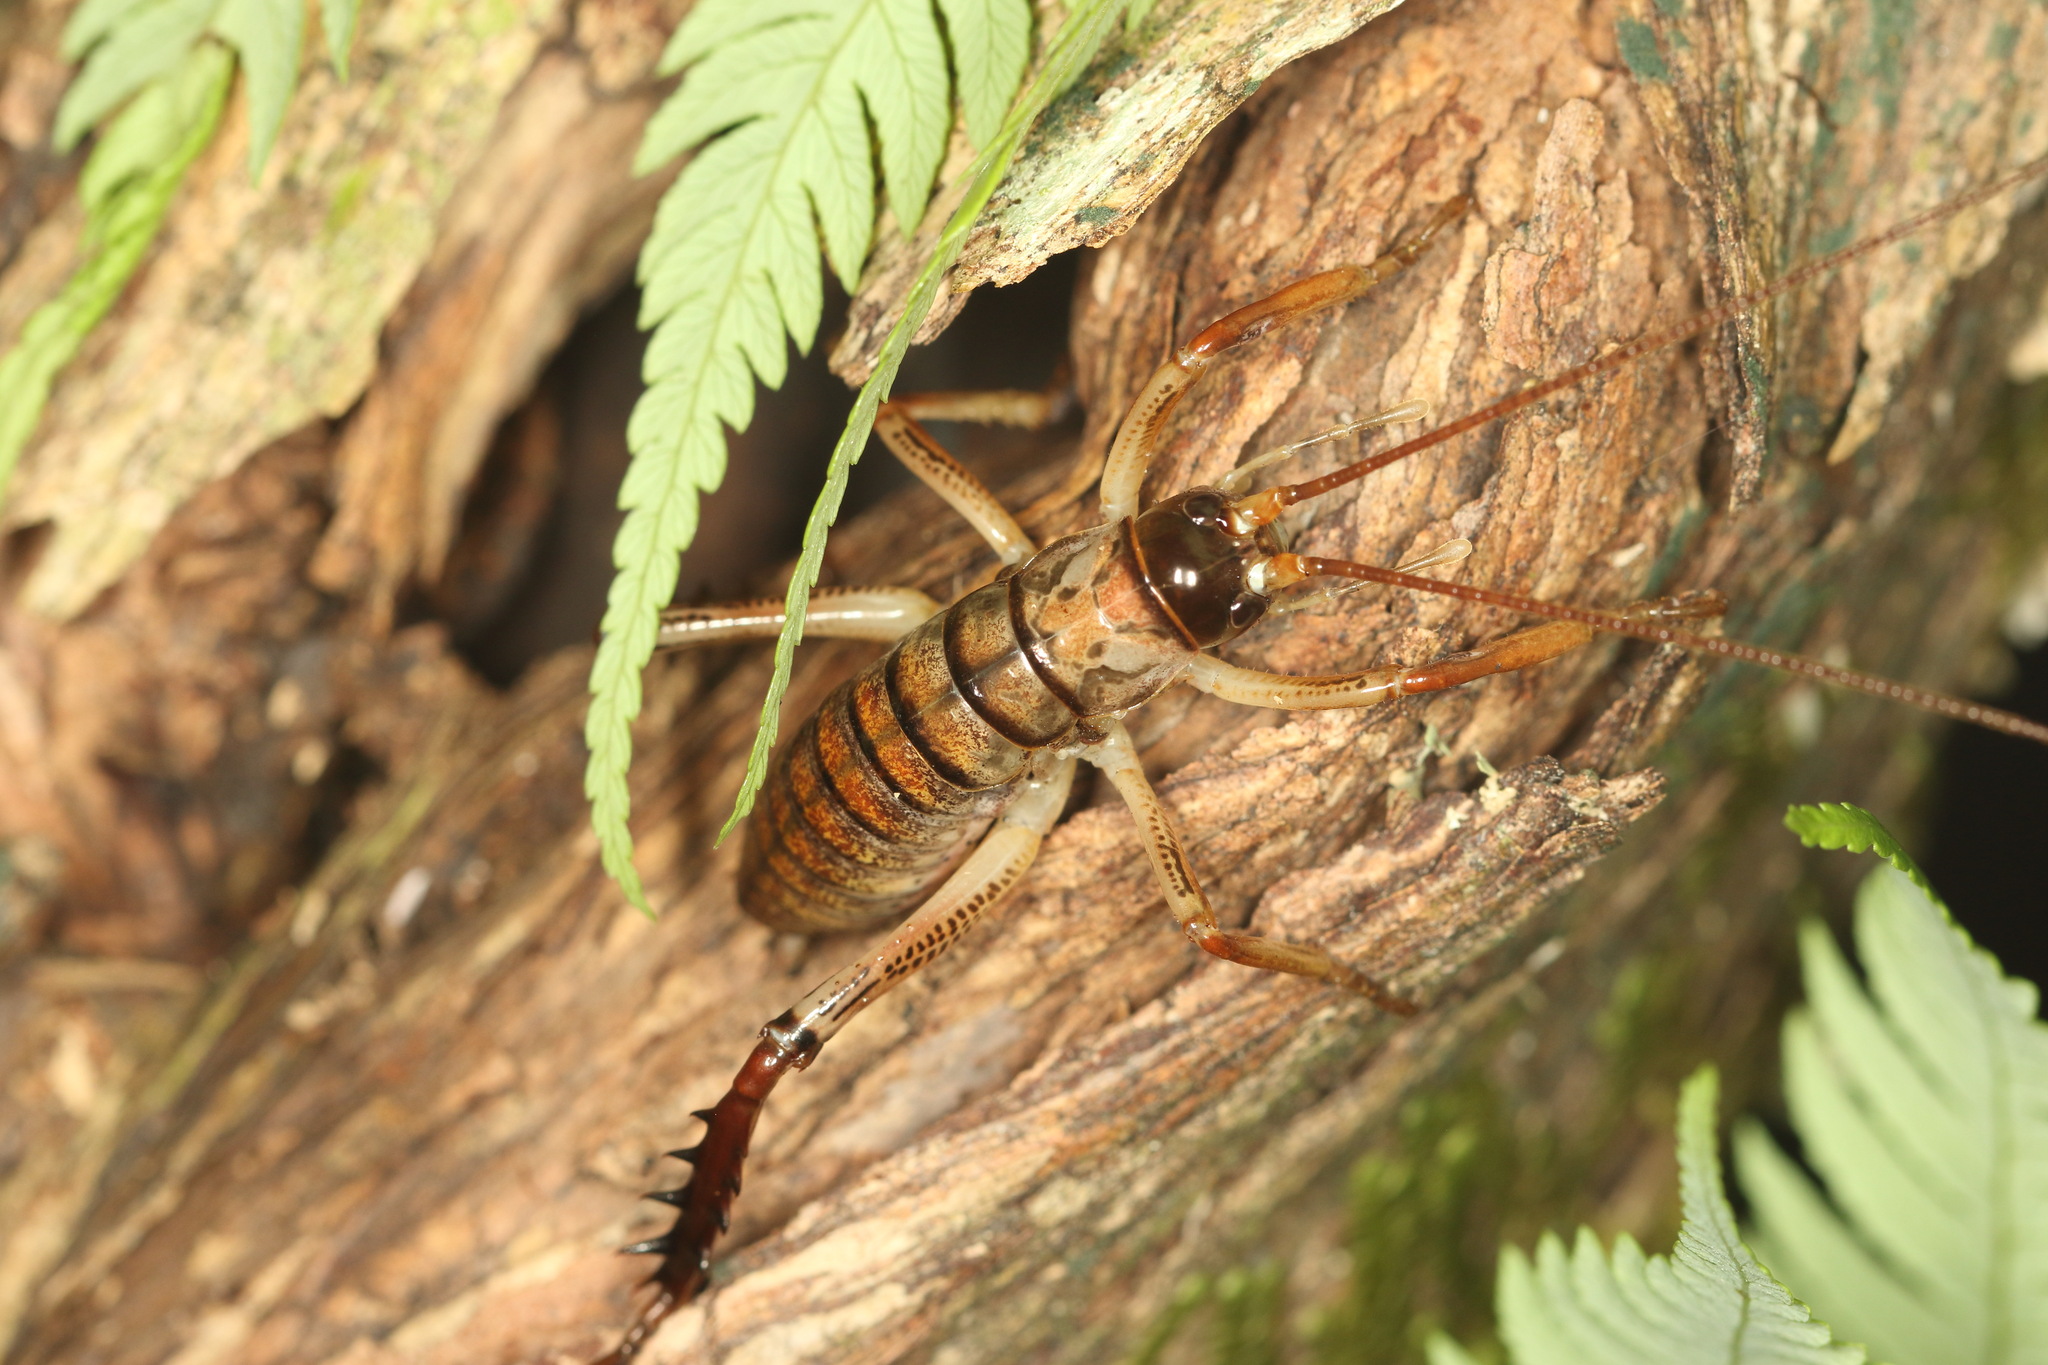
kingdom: Animalia
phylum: Arthropoda
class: Insecta
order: Orthoptera
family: Anostostomatidae
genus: Hemideina
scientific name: Hemideina thoracica
